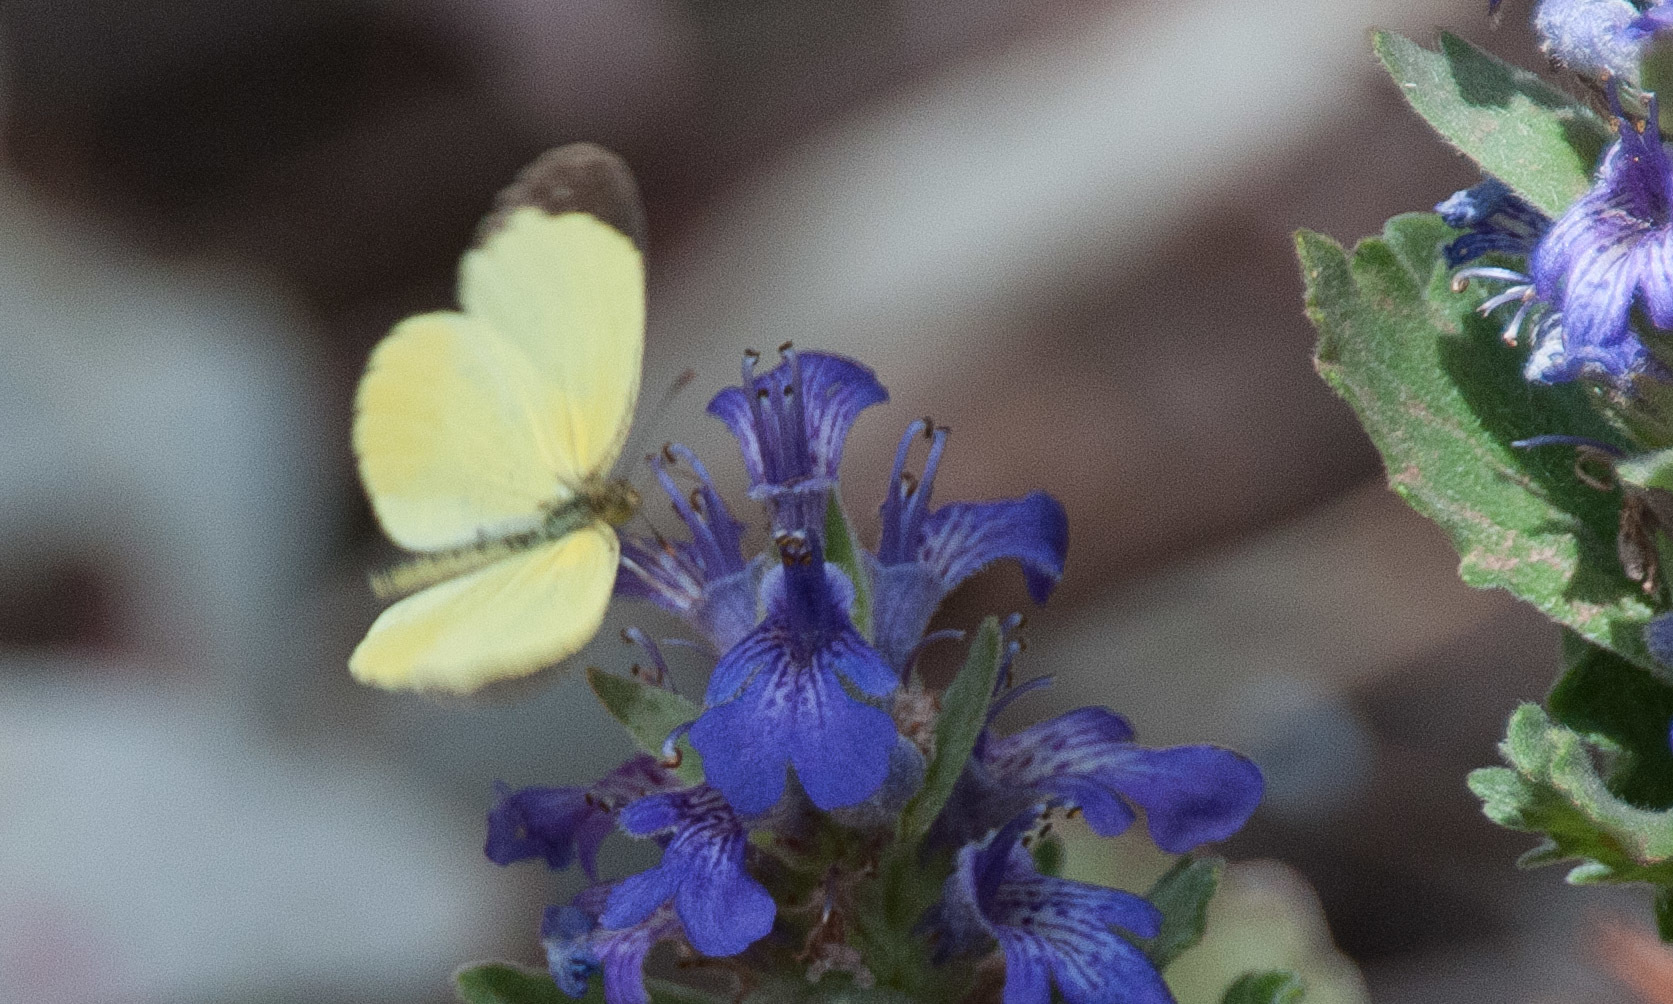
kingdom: Animalia
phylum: Arthropoda
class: Insecta
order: Lepidoptera
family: Pieridae
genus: Eurema
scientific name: Eurema smilax
